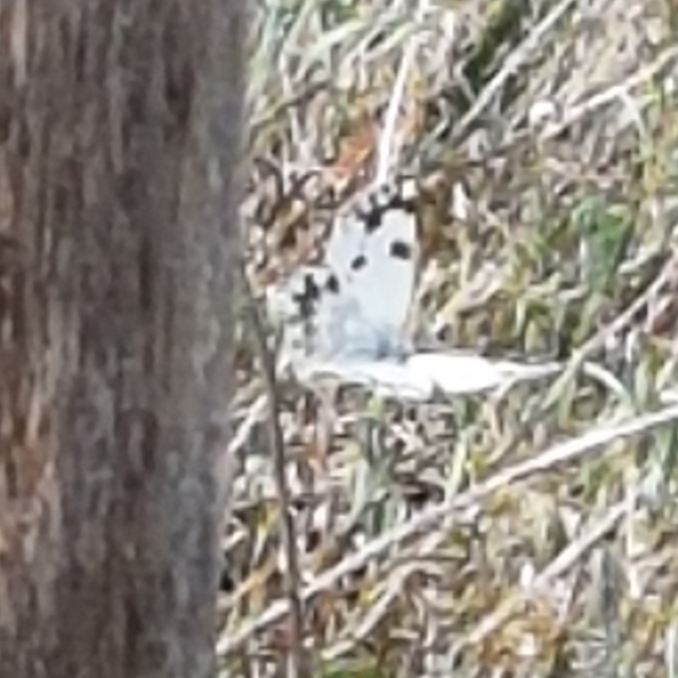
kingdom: Animalia
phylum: Arthropoda
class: Insecta
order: Lepidoptera
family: Pieridae
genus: Pontia
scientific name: Pontia daplidice
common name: Bath white
